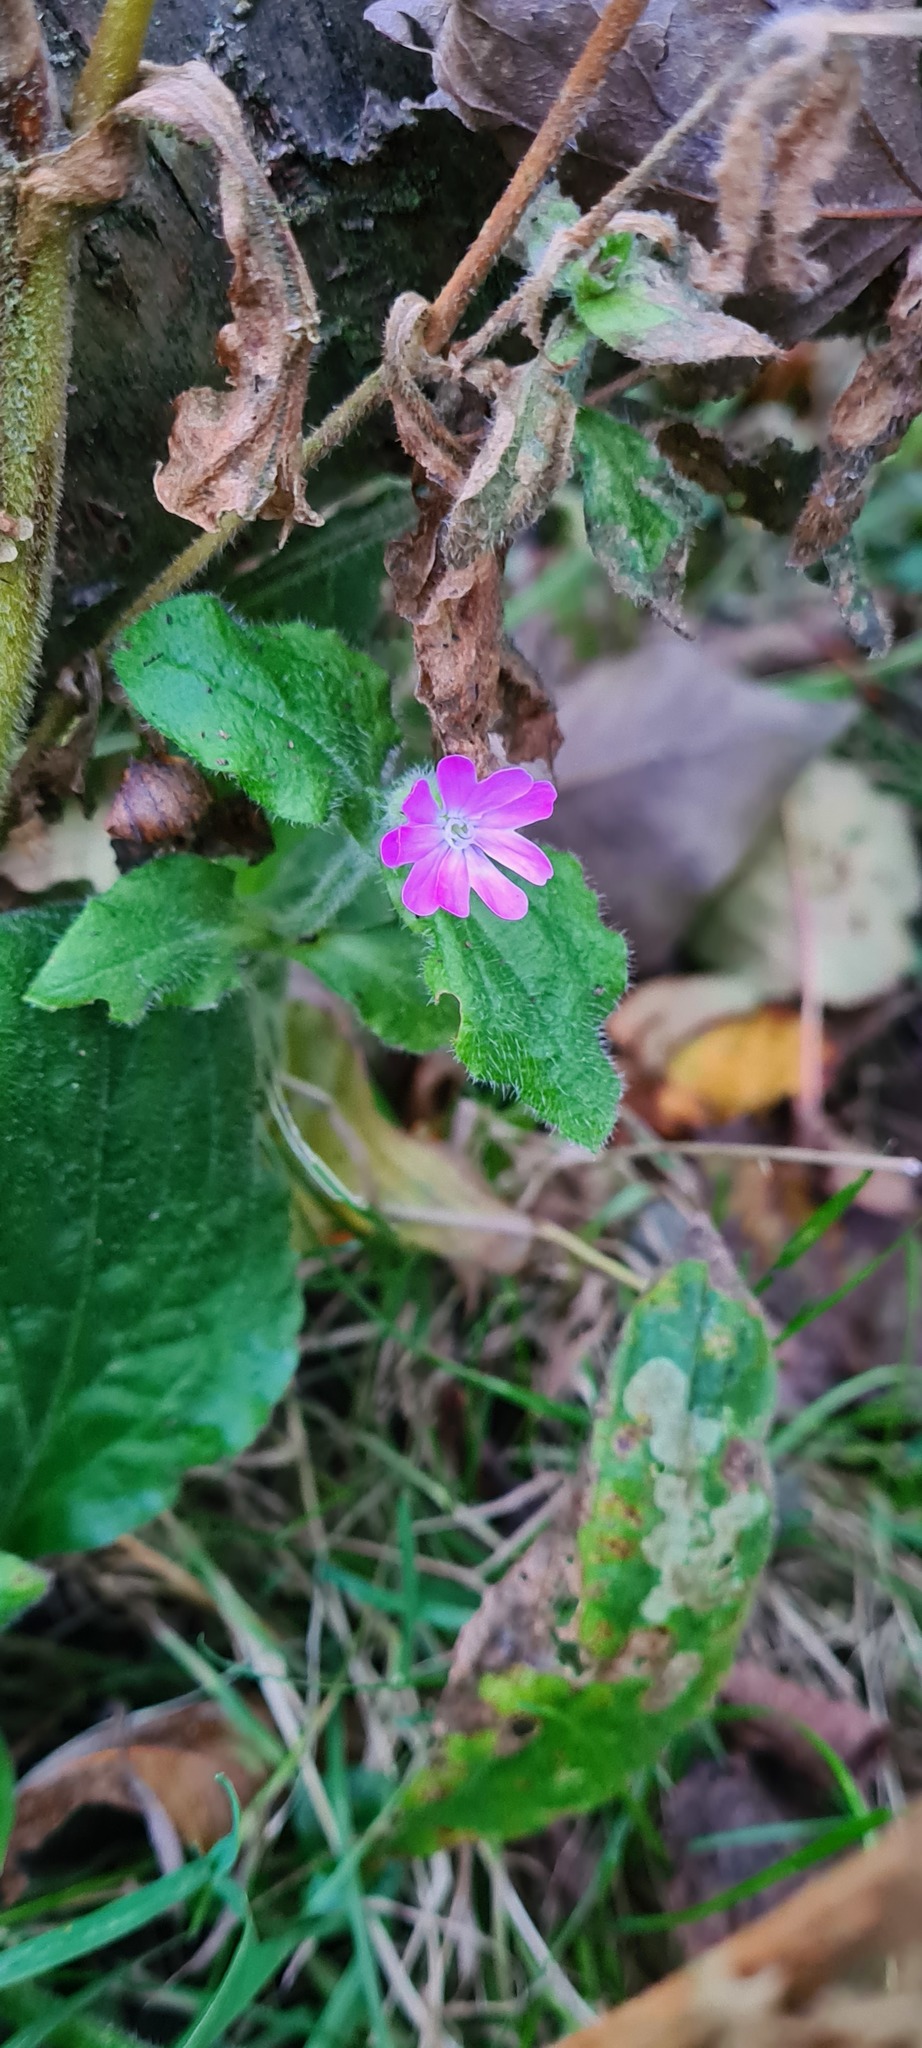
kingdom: Plantae
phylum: Tracheophyta
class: Magnoliopsida
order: Caryophyllales
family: Caryophyllaceae
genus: Silene
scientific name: Silene dioica
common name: Red campion
